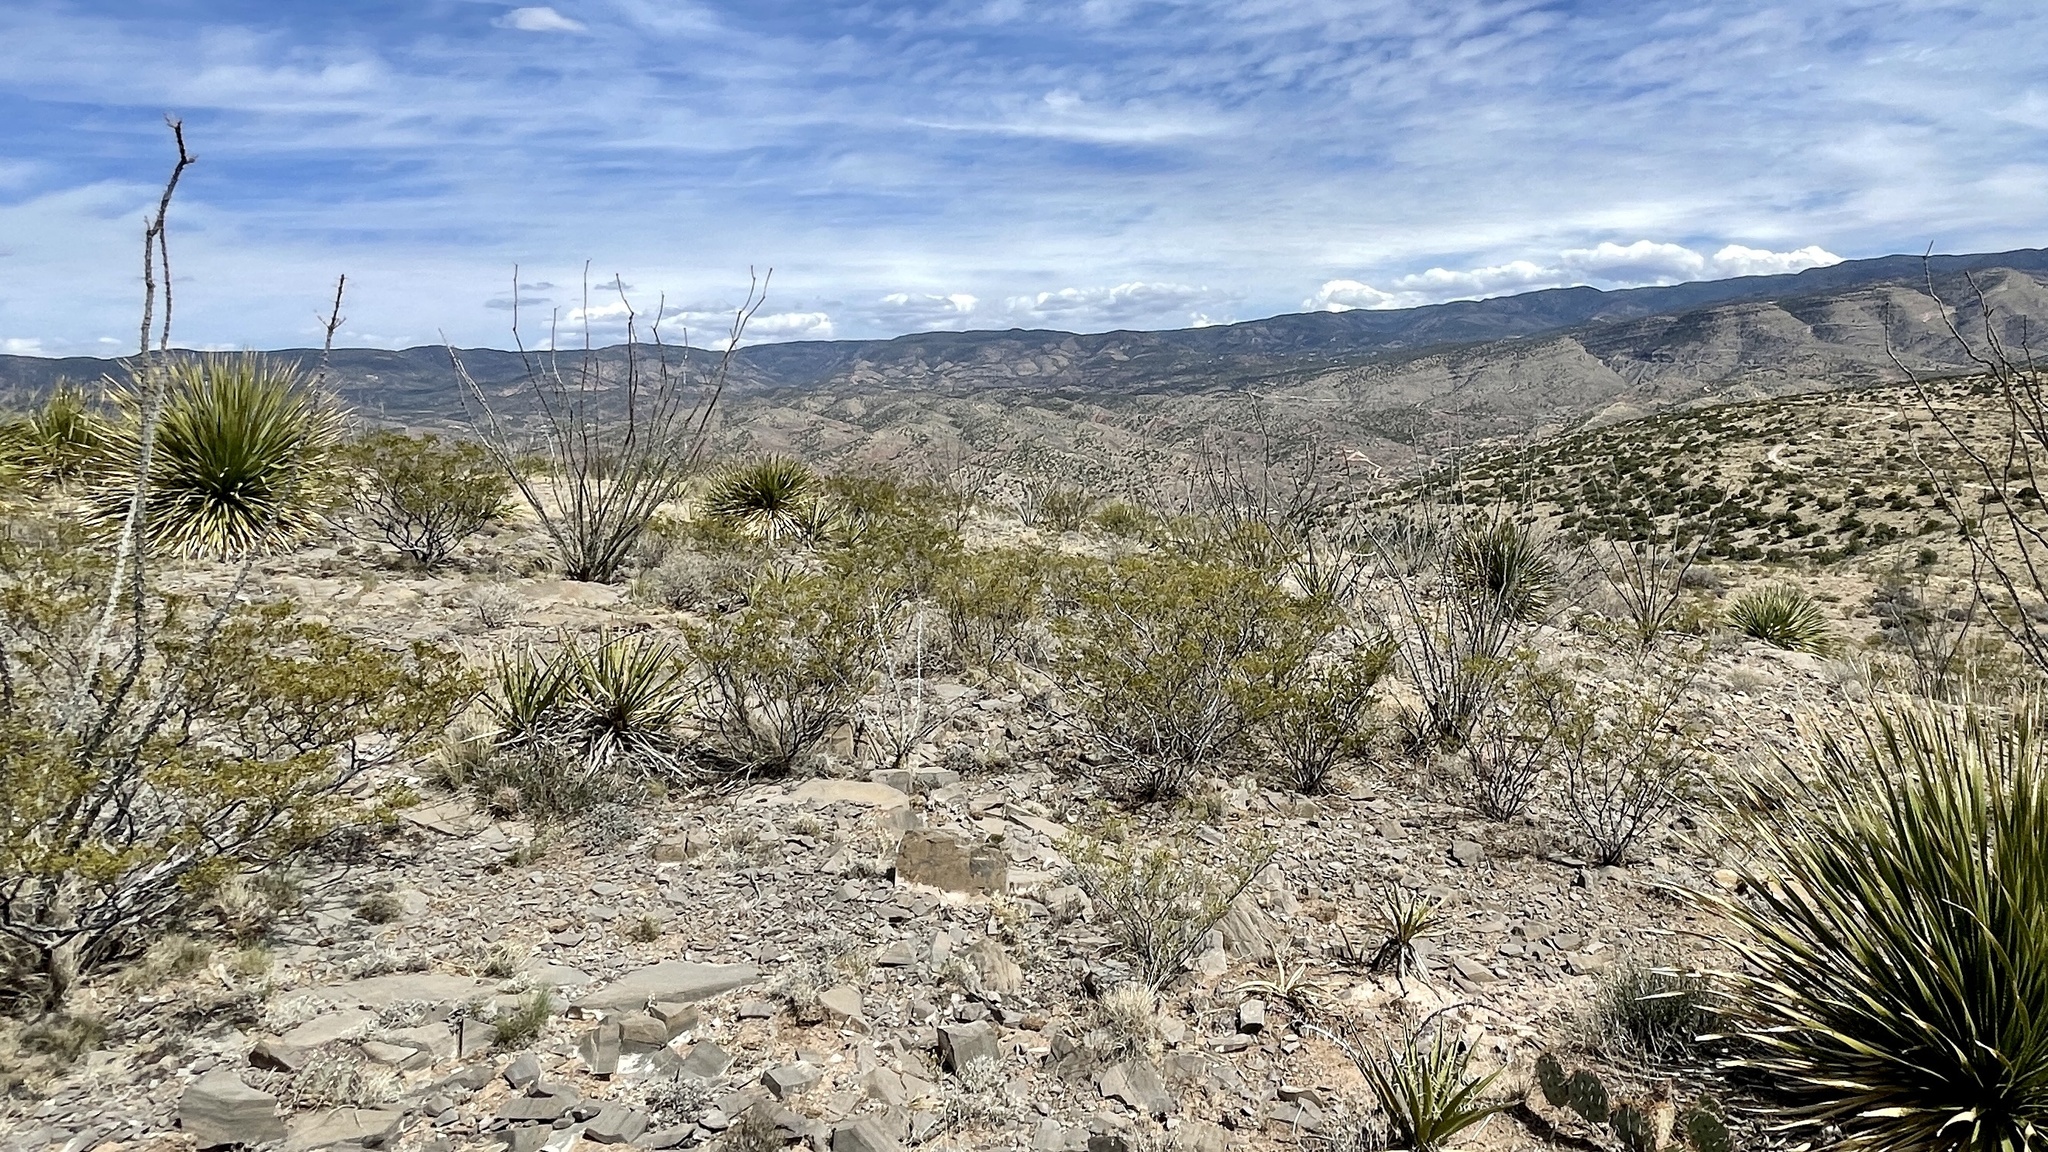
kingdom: Plantae
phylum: Tracheophyta
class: Magnoliopsida
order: Zygophyllales
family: Zygophyllaceae
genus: Larrea
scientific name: Larrea tridentata
